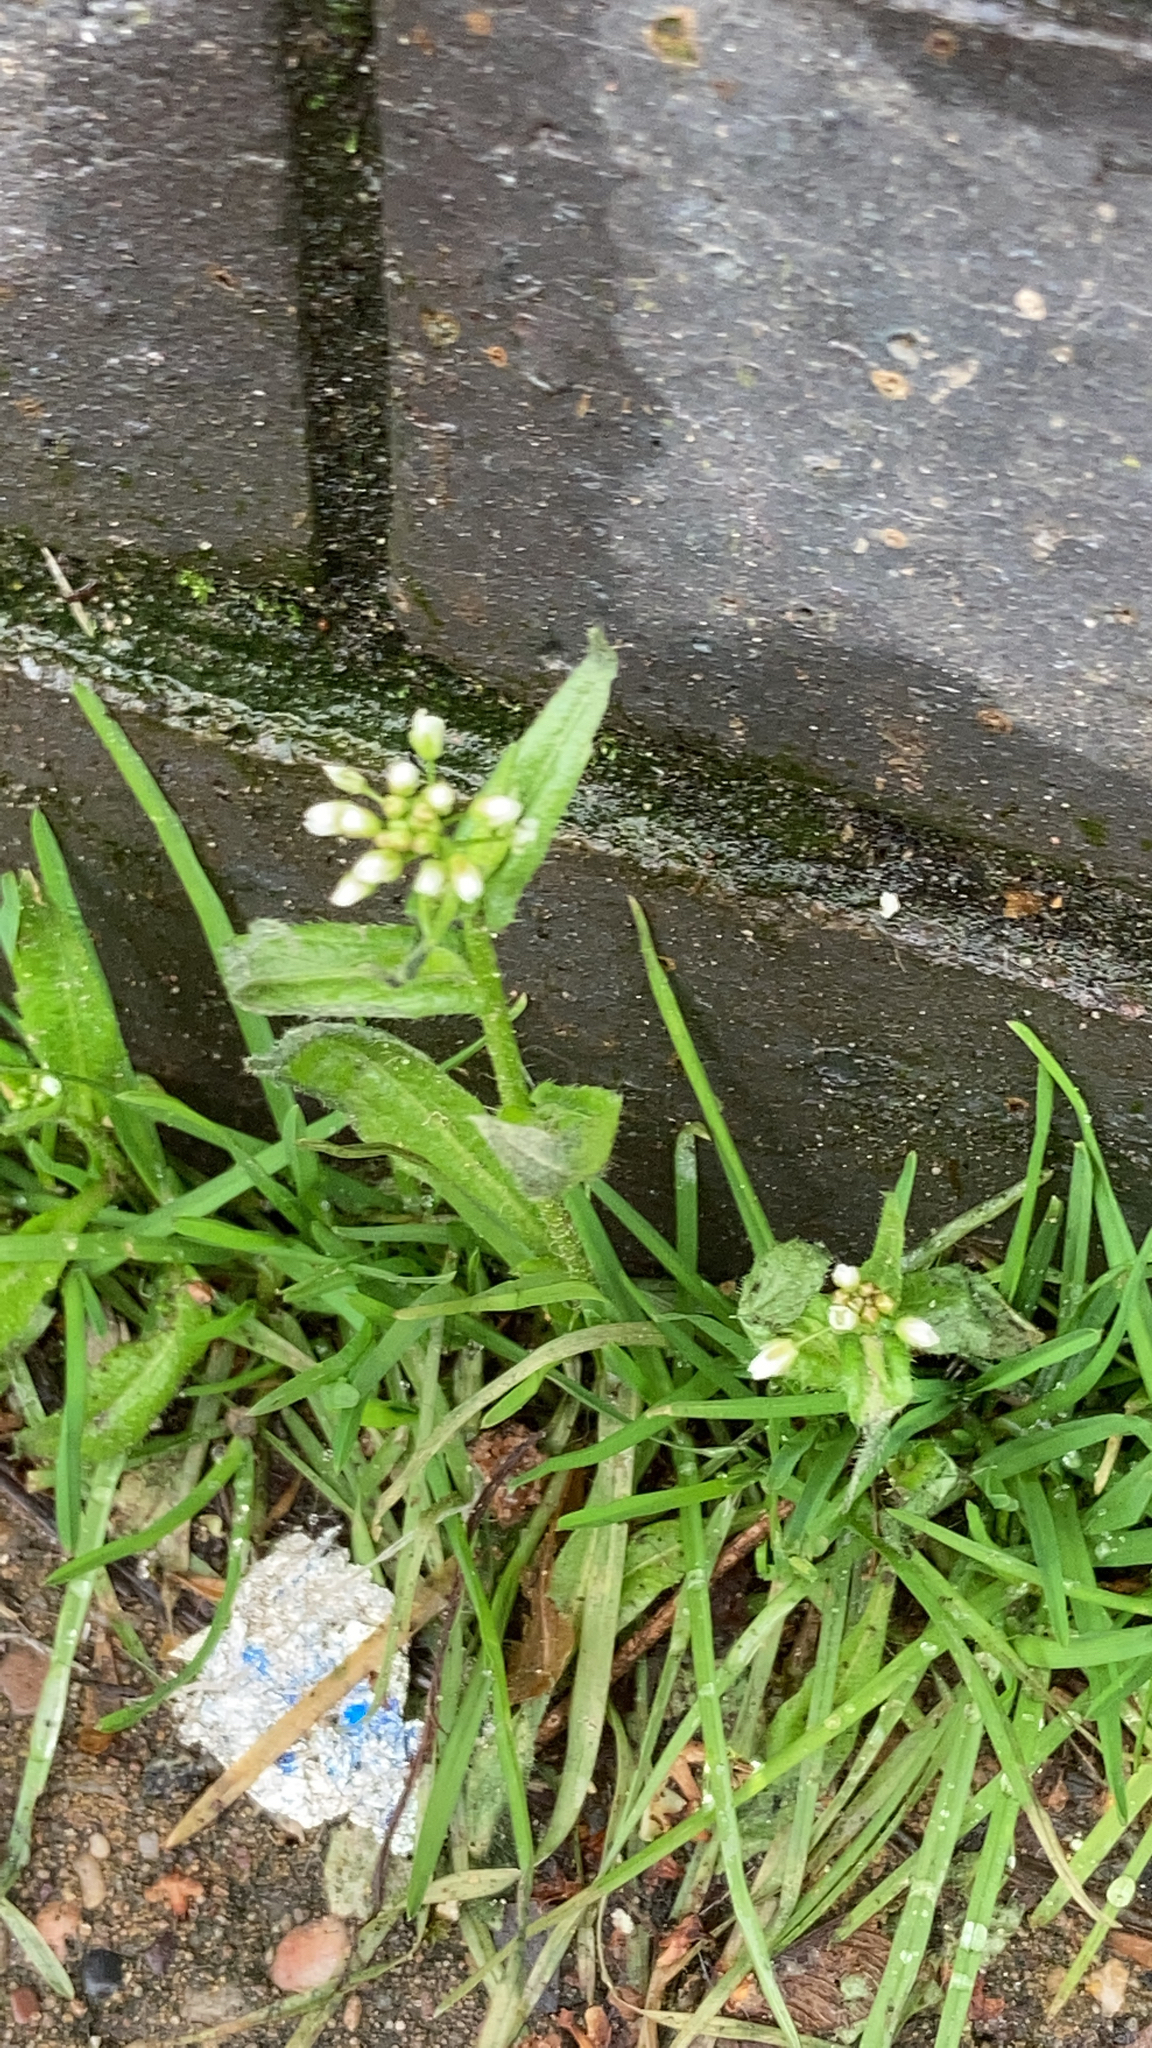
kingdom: Plantae
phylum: Tracheophyta
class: Magnoliopsida
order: Brassicales
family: Brassicaceae
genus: Capsella
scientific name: Capsella bursa-pastoris
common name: Shepherd's purse
